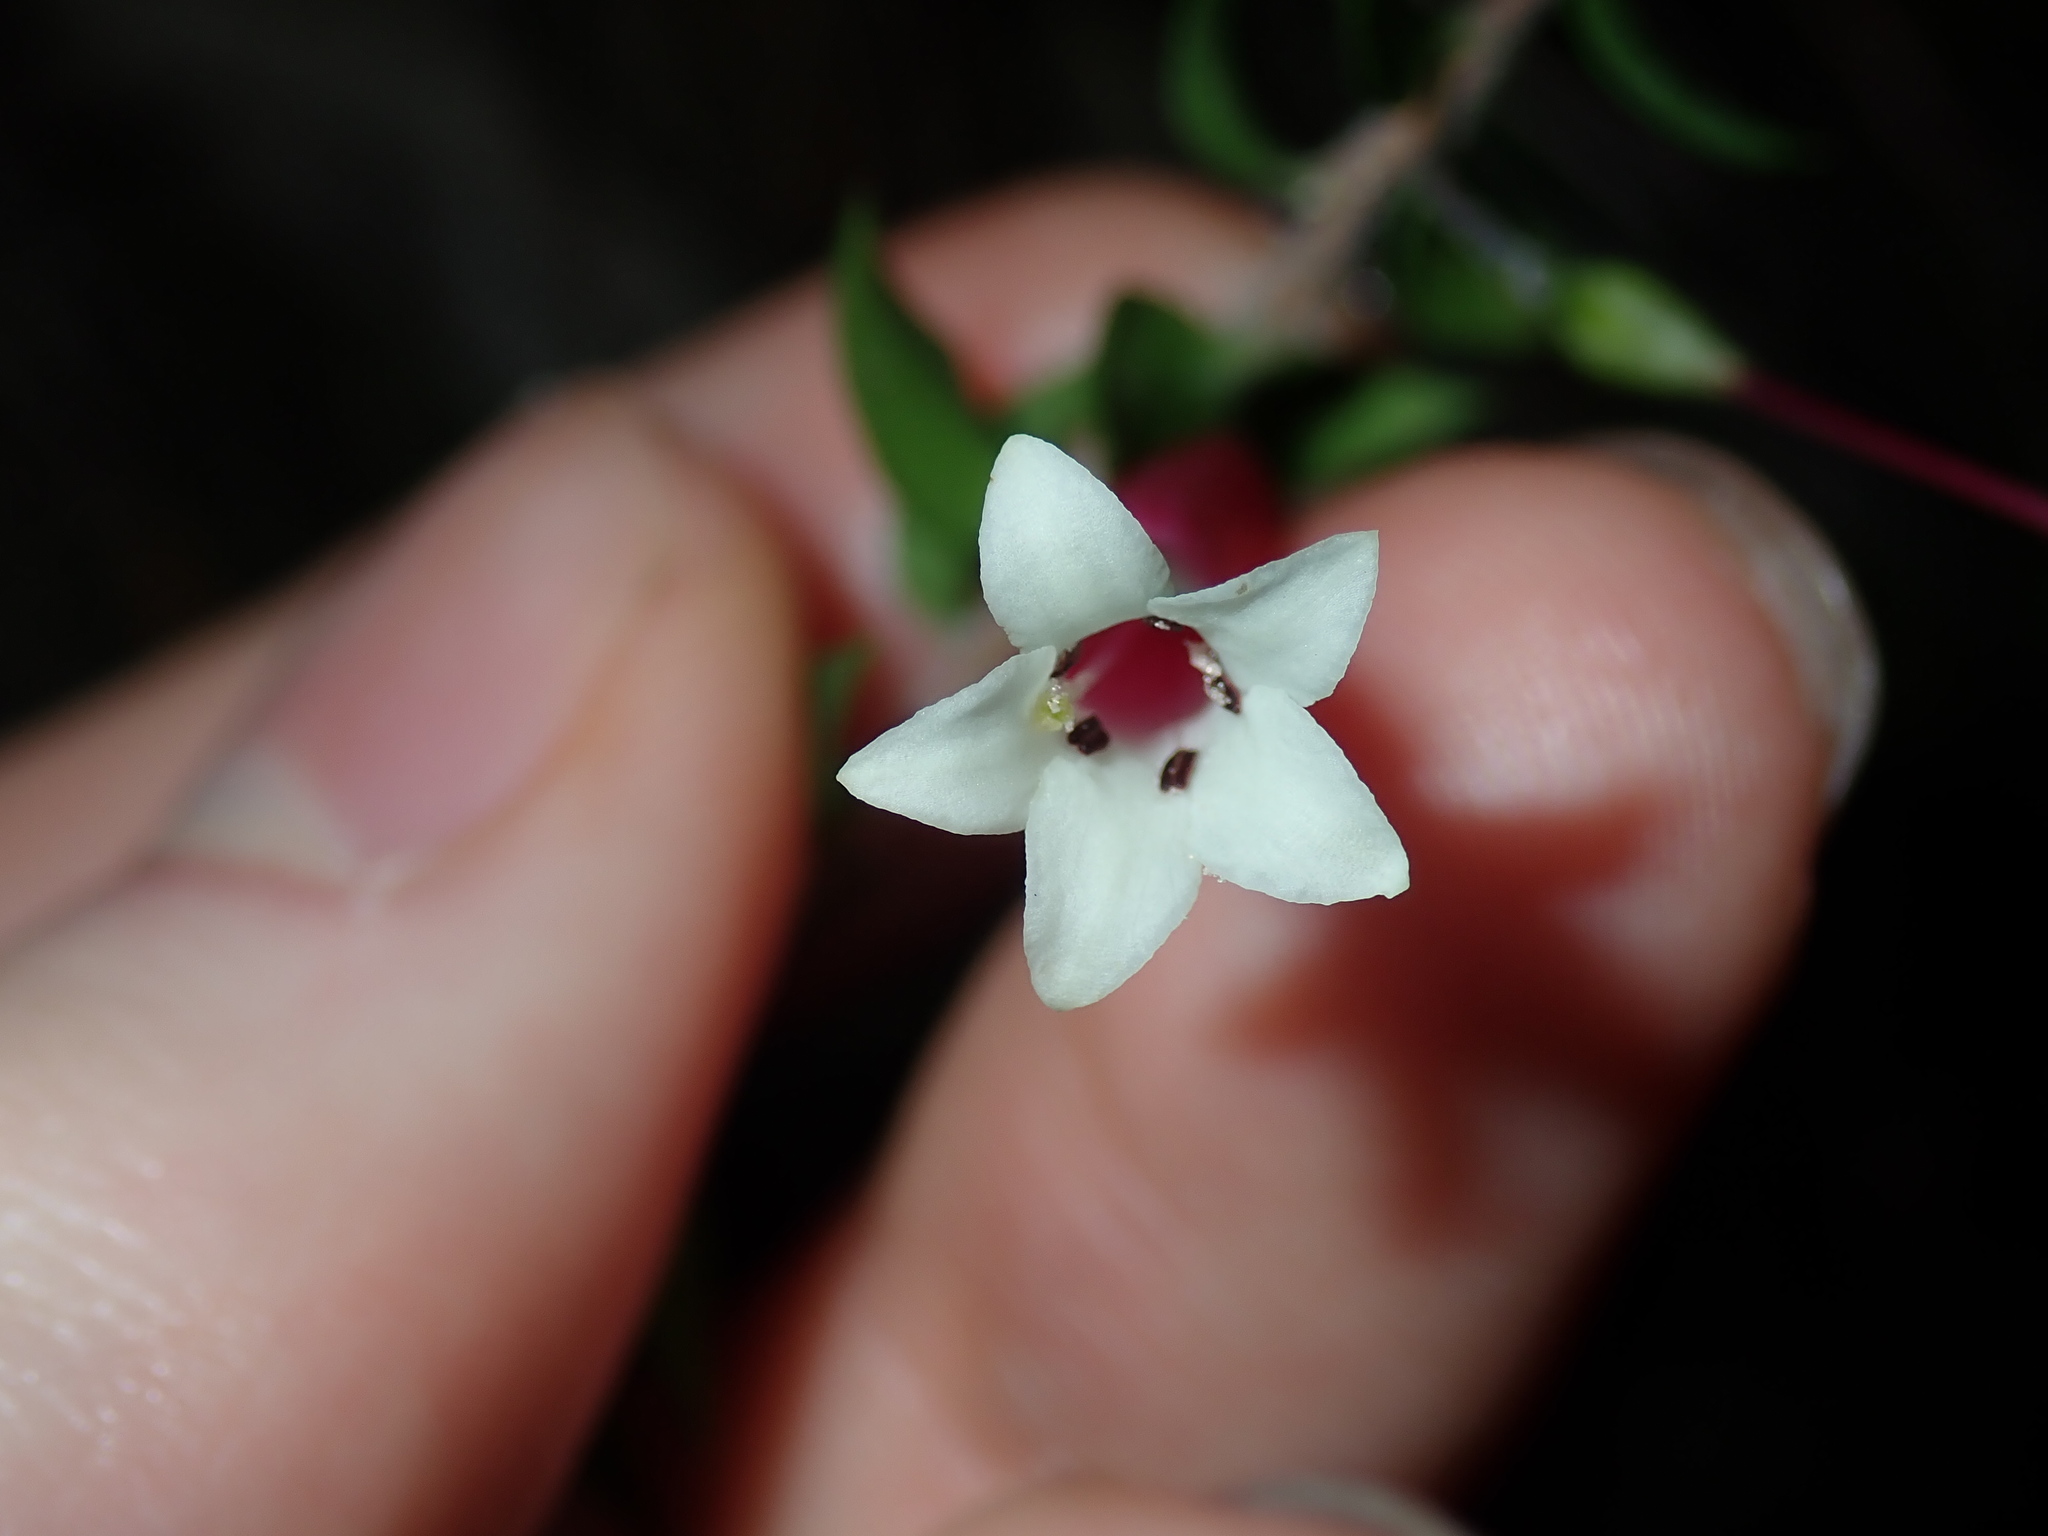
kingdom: Plantae
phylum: Tracheophyta
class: Magnoliopsida
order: Ericales
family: Ericaceae
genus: Epacris
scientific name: Epacris longiflora
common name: Fuchsia-heath
